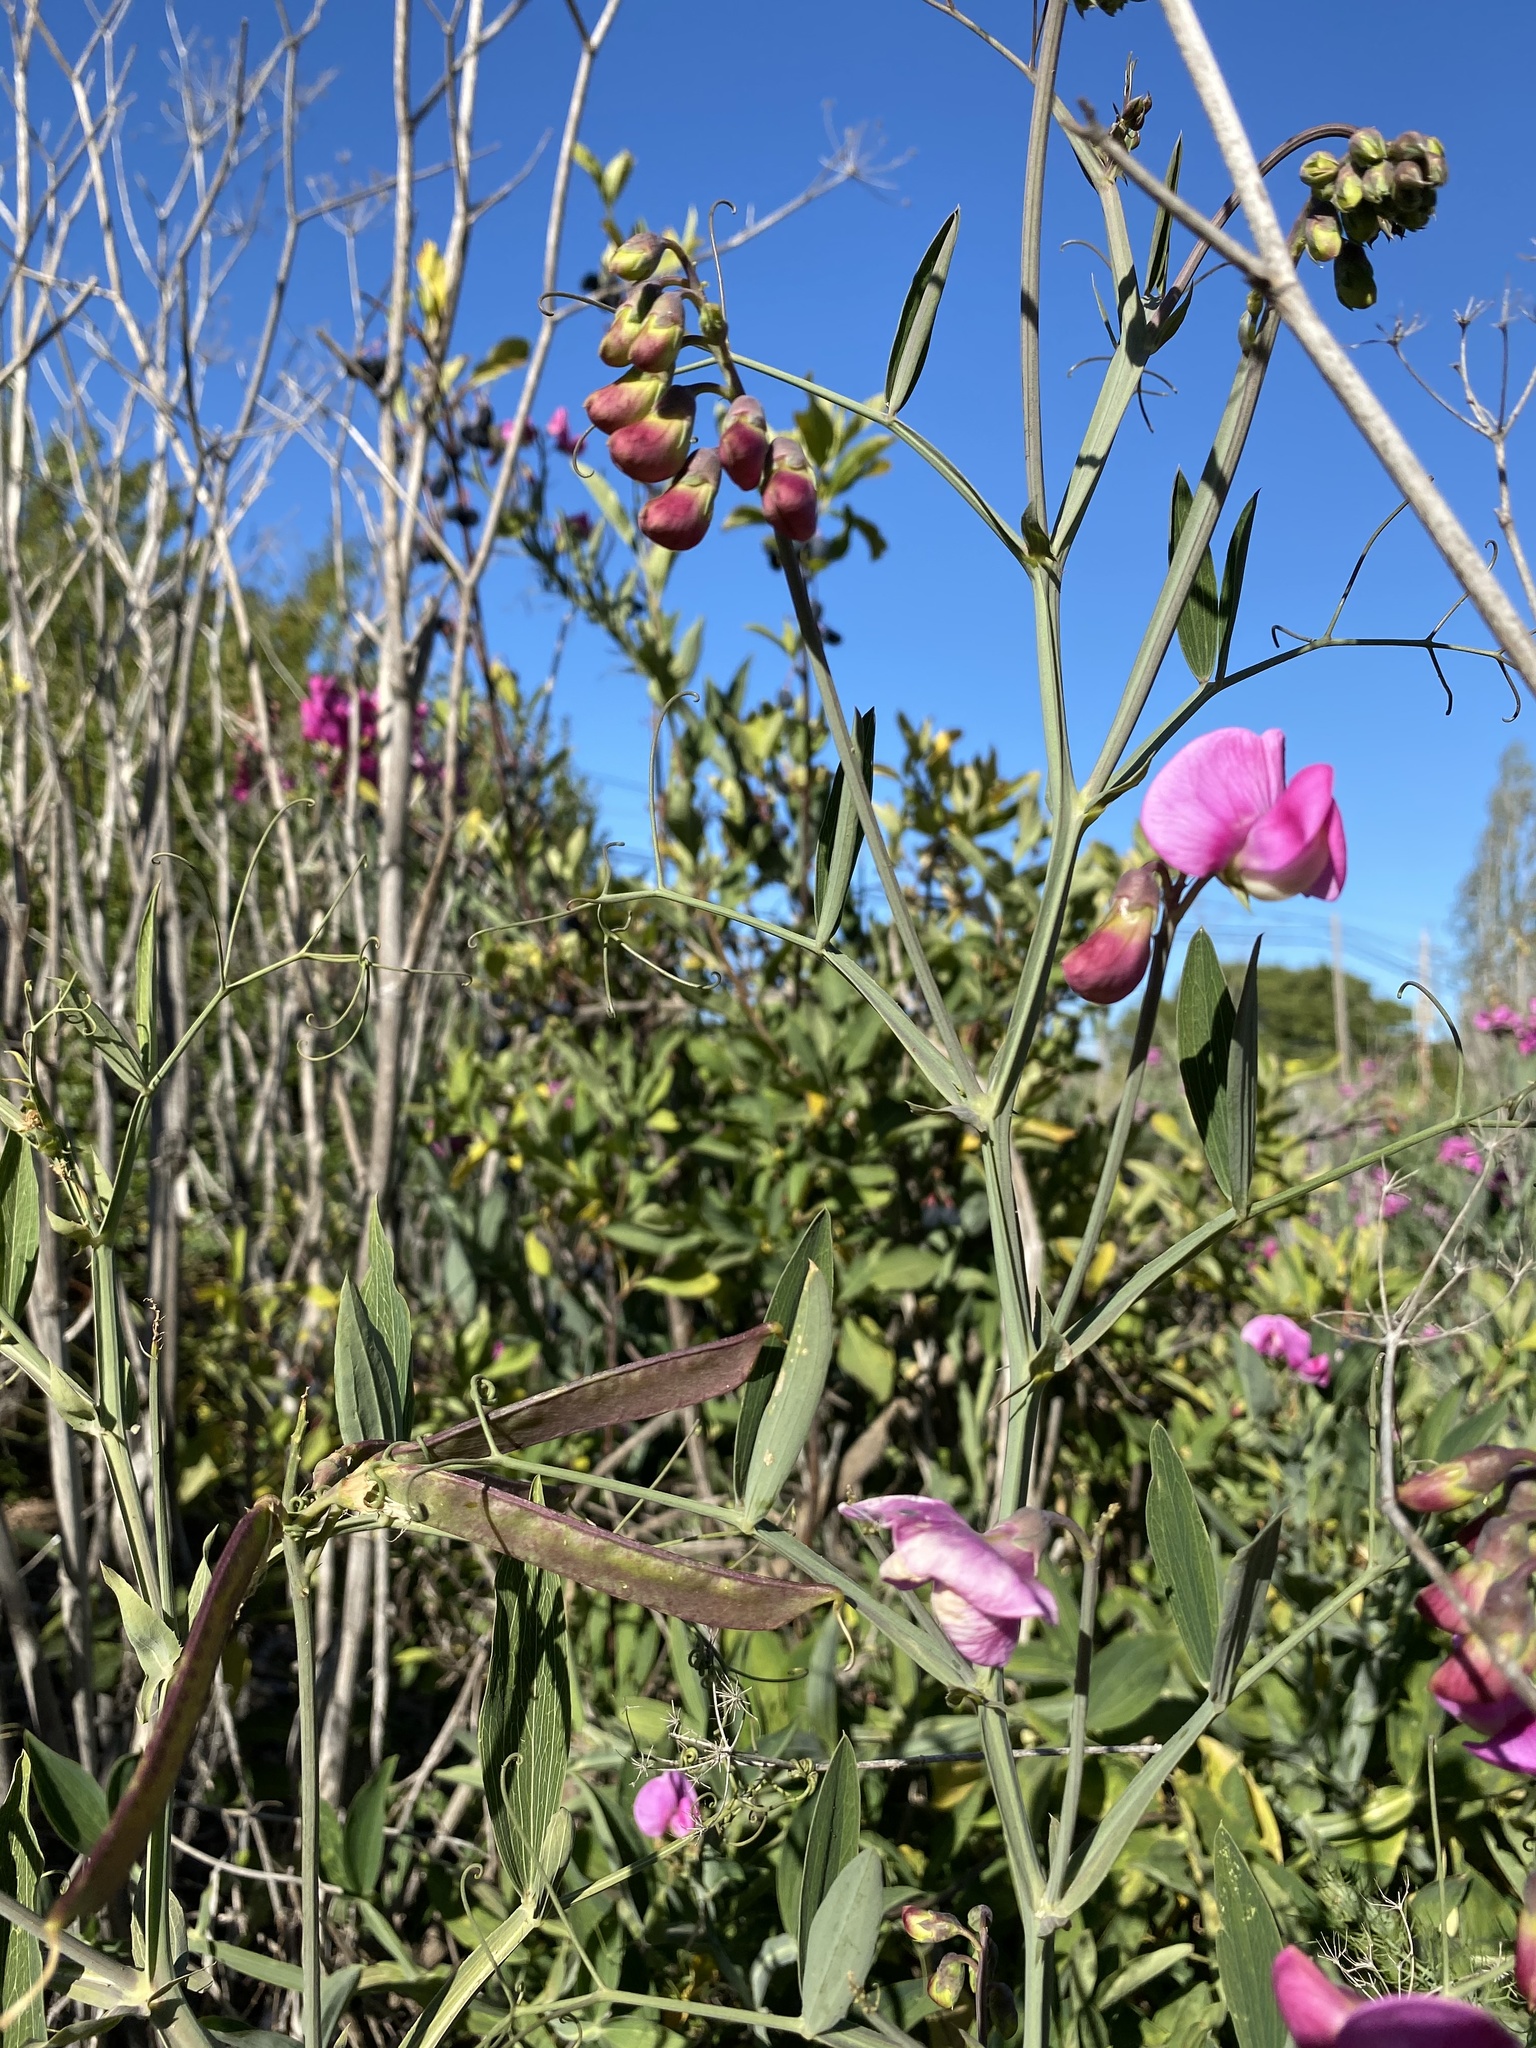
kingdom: Plantae
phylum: Tracheophyta
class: Magnoliopsida
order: Fabales
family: Fabaceae
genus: Lathyrus
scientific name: Lathyrus latifolius
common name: Perennial pea
